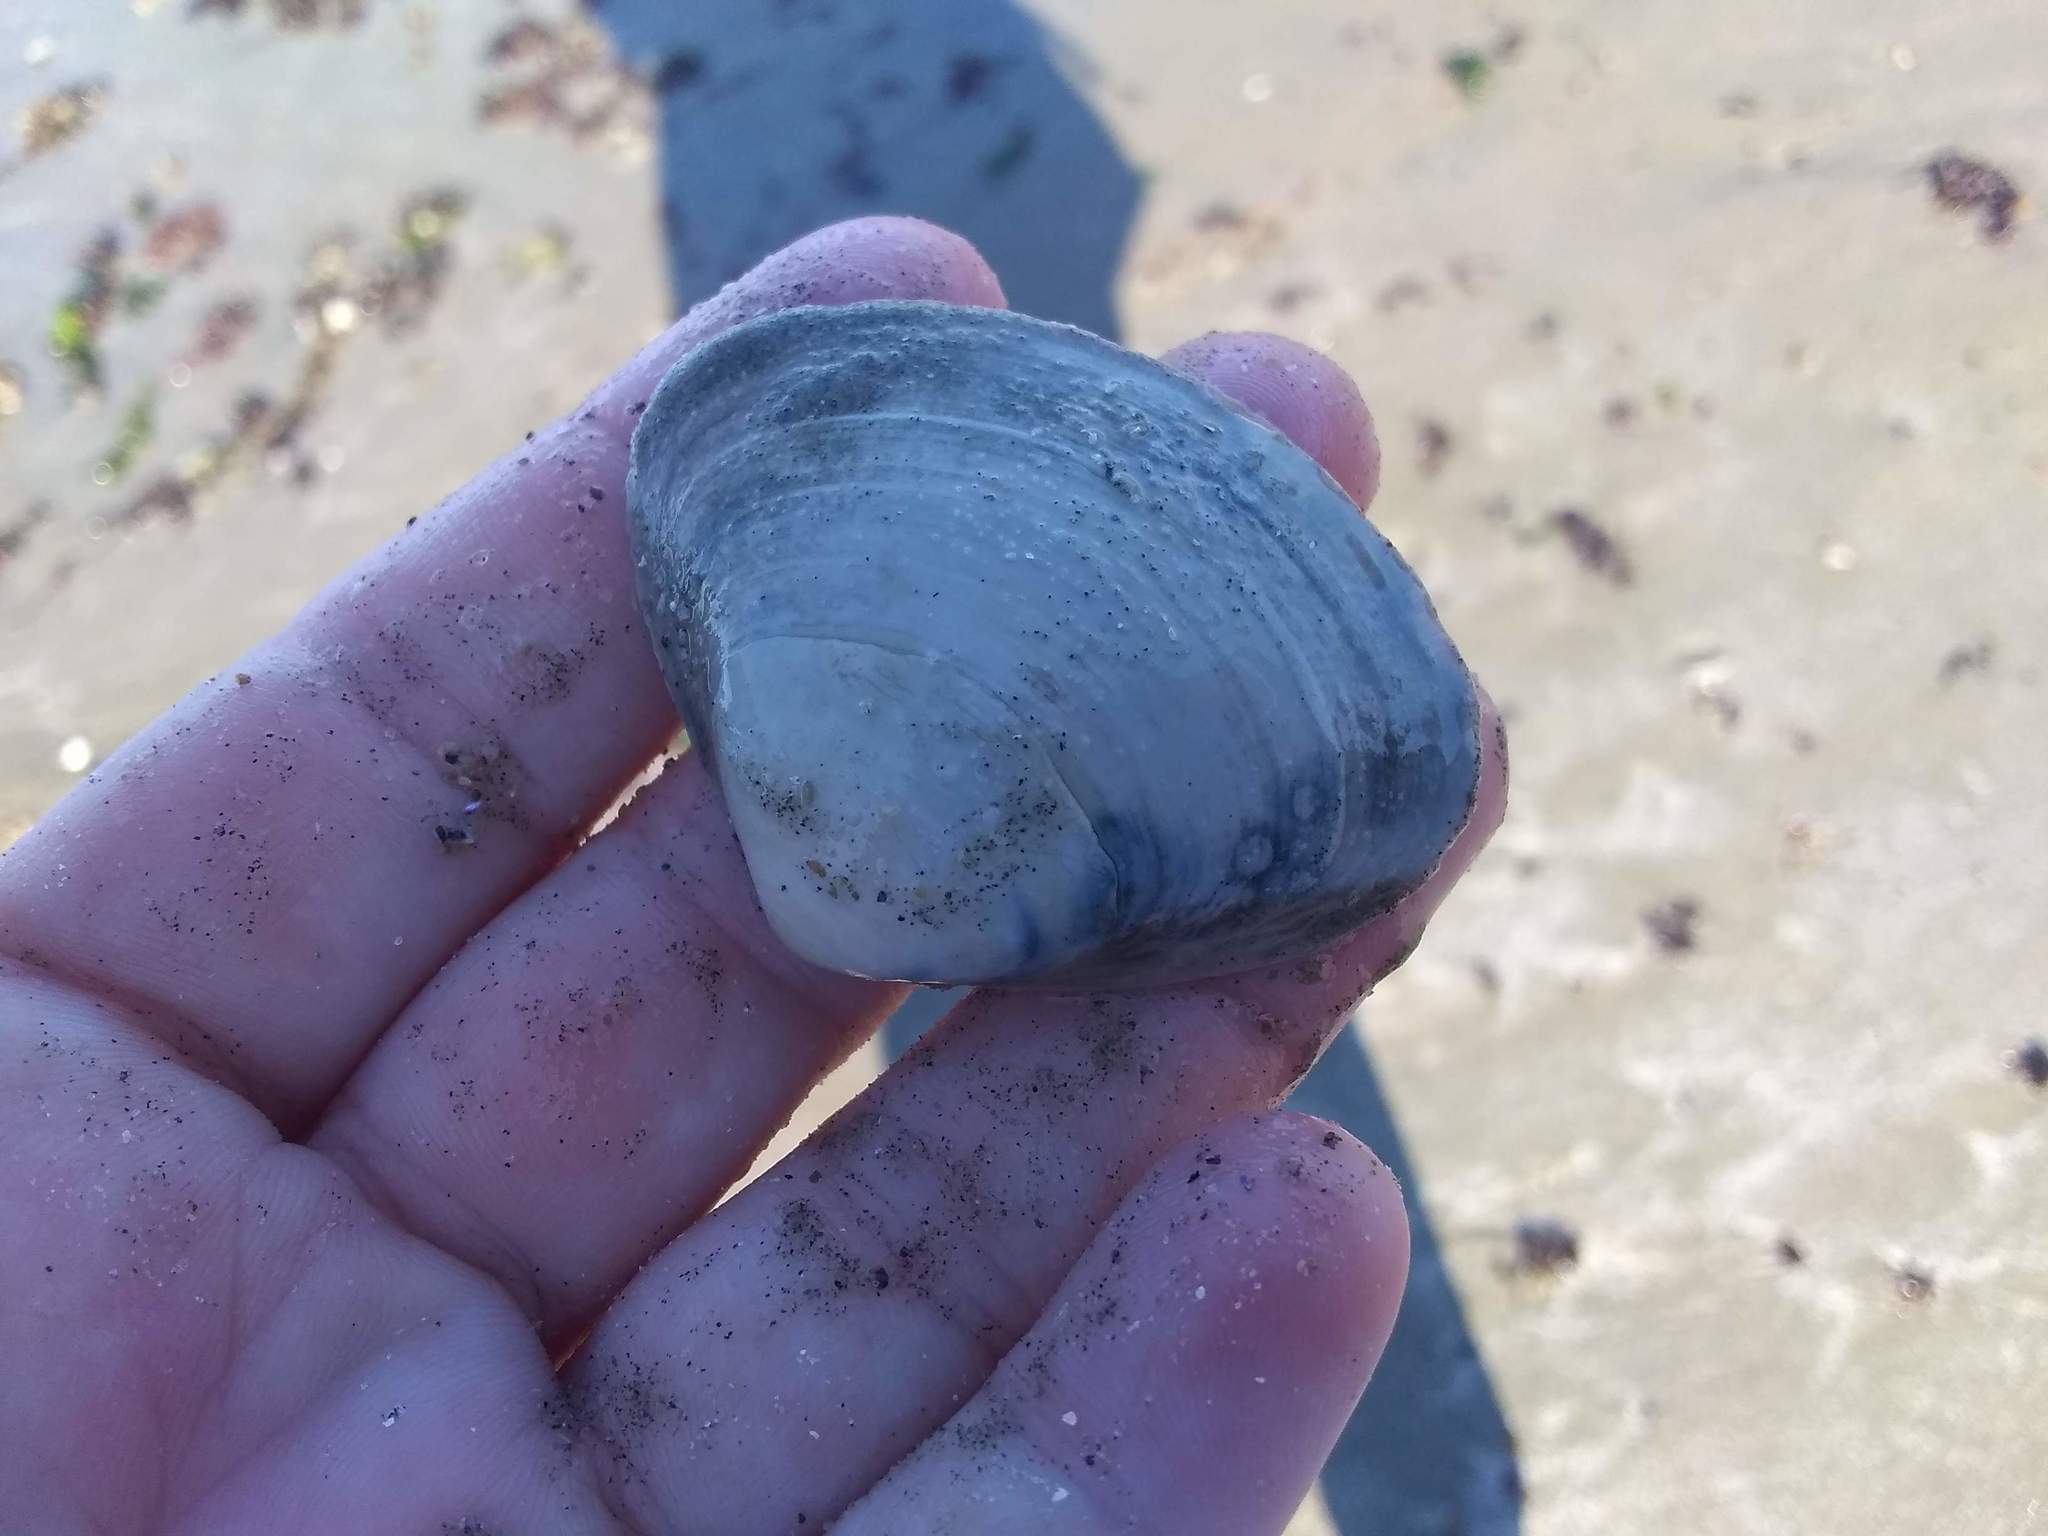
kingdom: Animalia
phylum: Mollusca
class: Bivalvia
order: Venerida
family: Mactridae
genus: Spisula
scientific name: Spisula solidissima
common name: Atlantic surf clam
